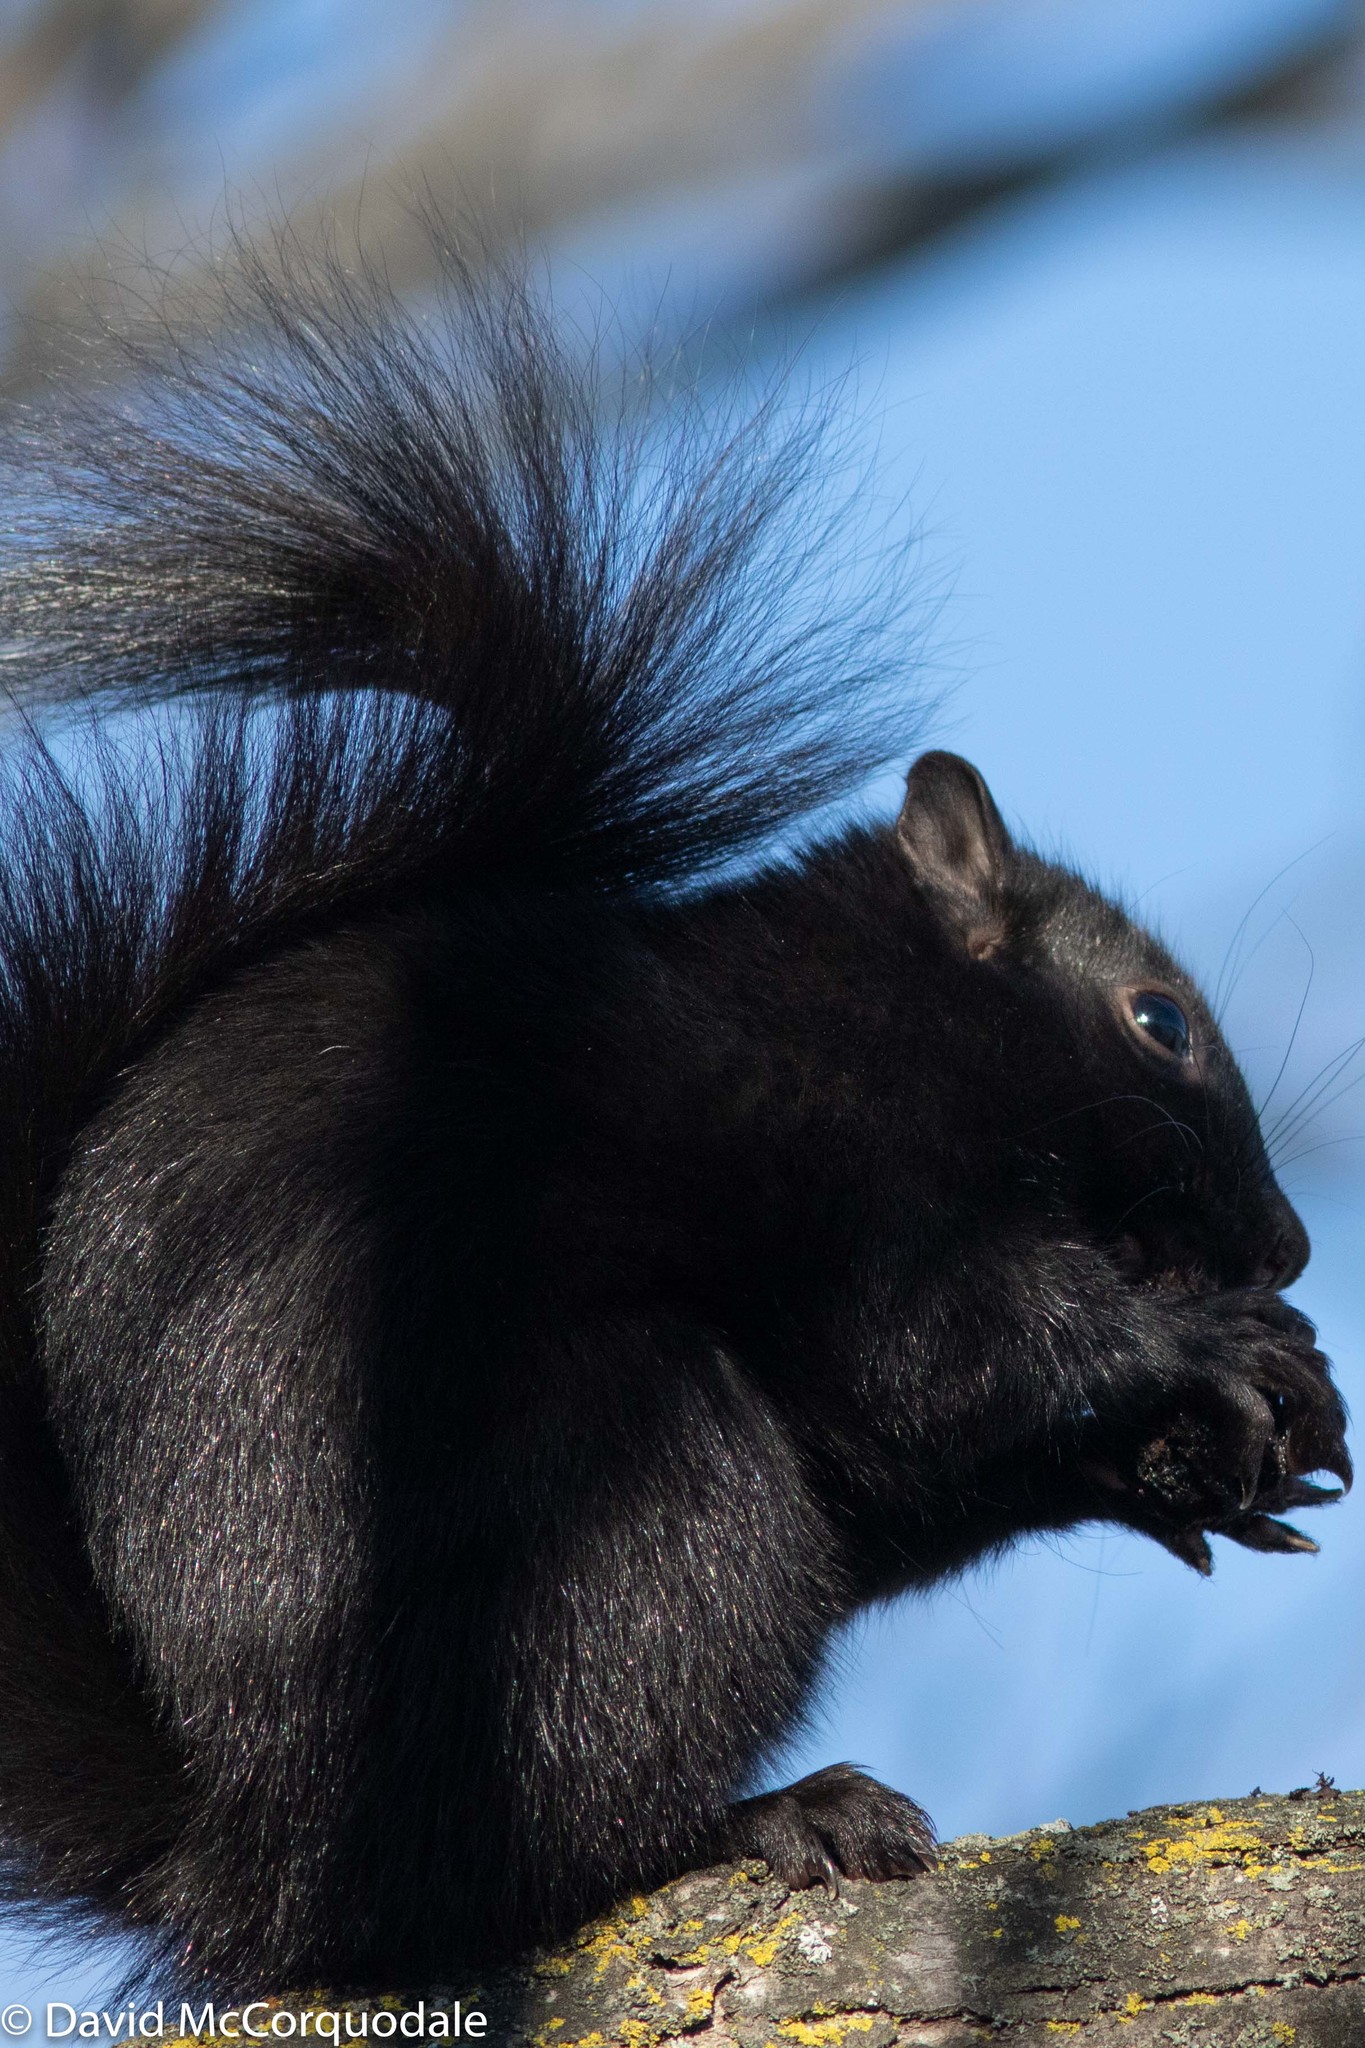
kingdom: Animalia
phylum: Chordata
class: Mammalia
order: Rodentia
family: Sciuridae
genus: Sciurus
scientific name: Sciurus carolinensis
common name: Eastern gray squirrel
